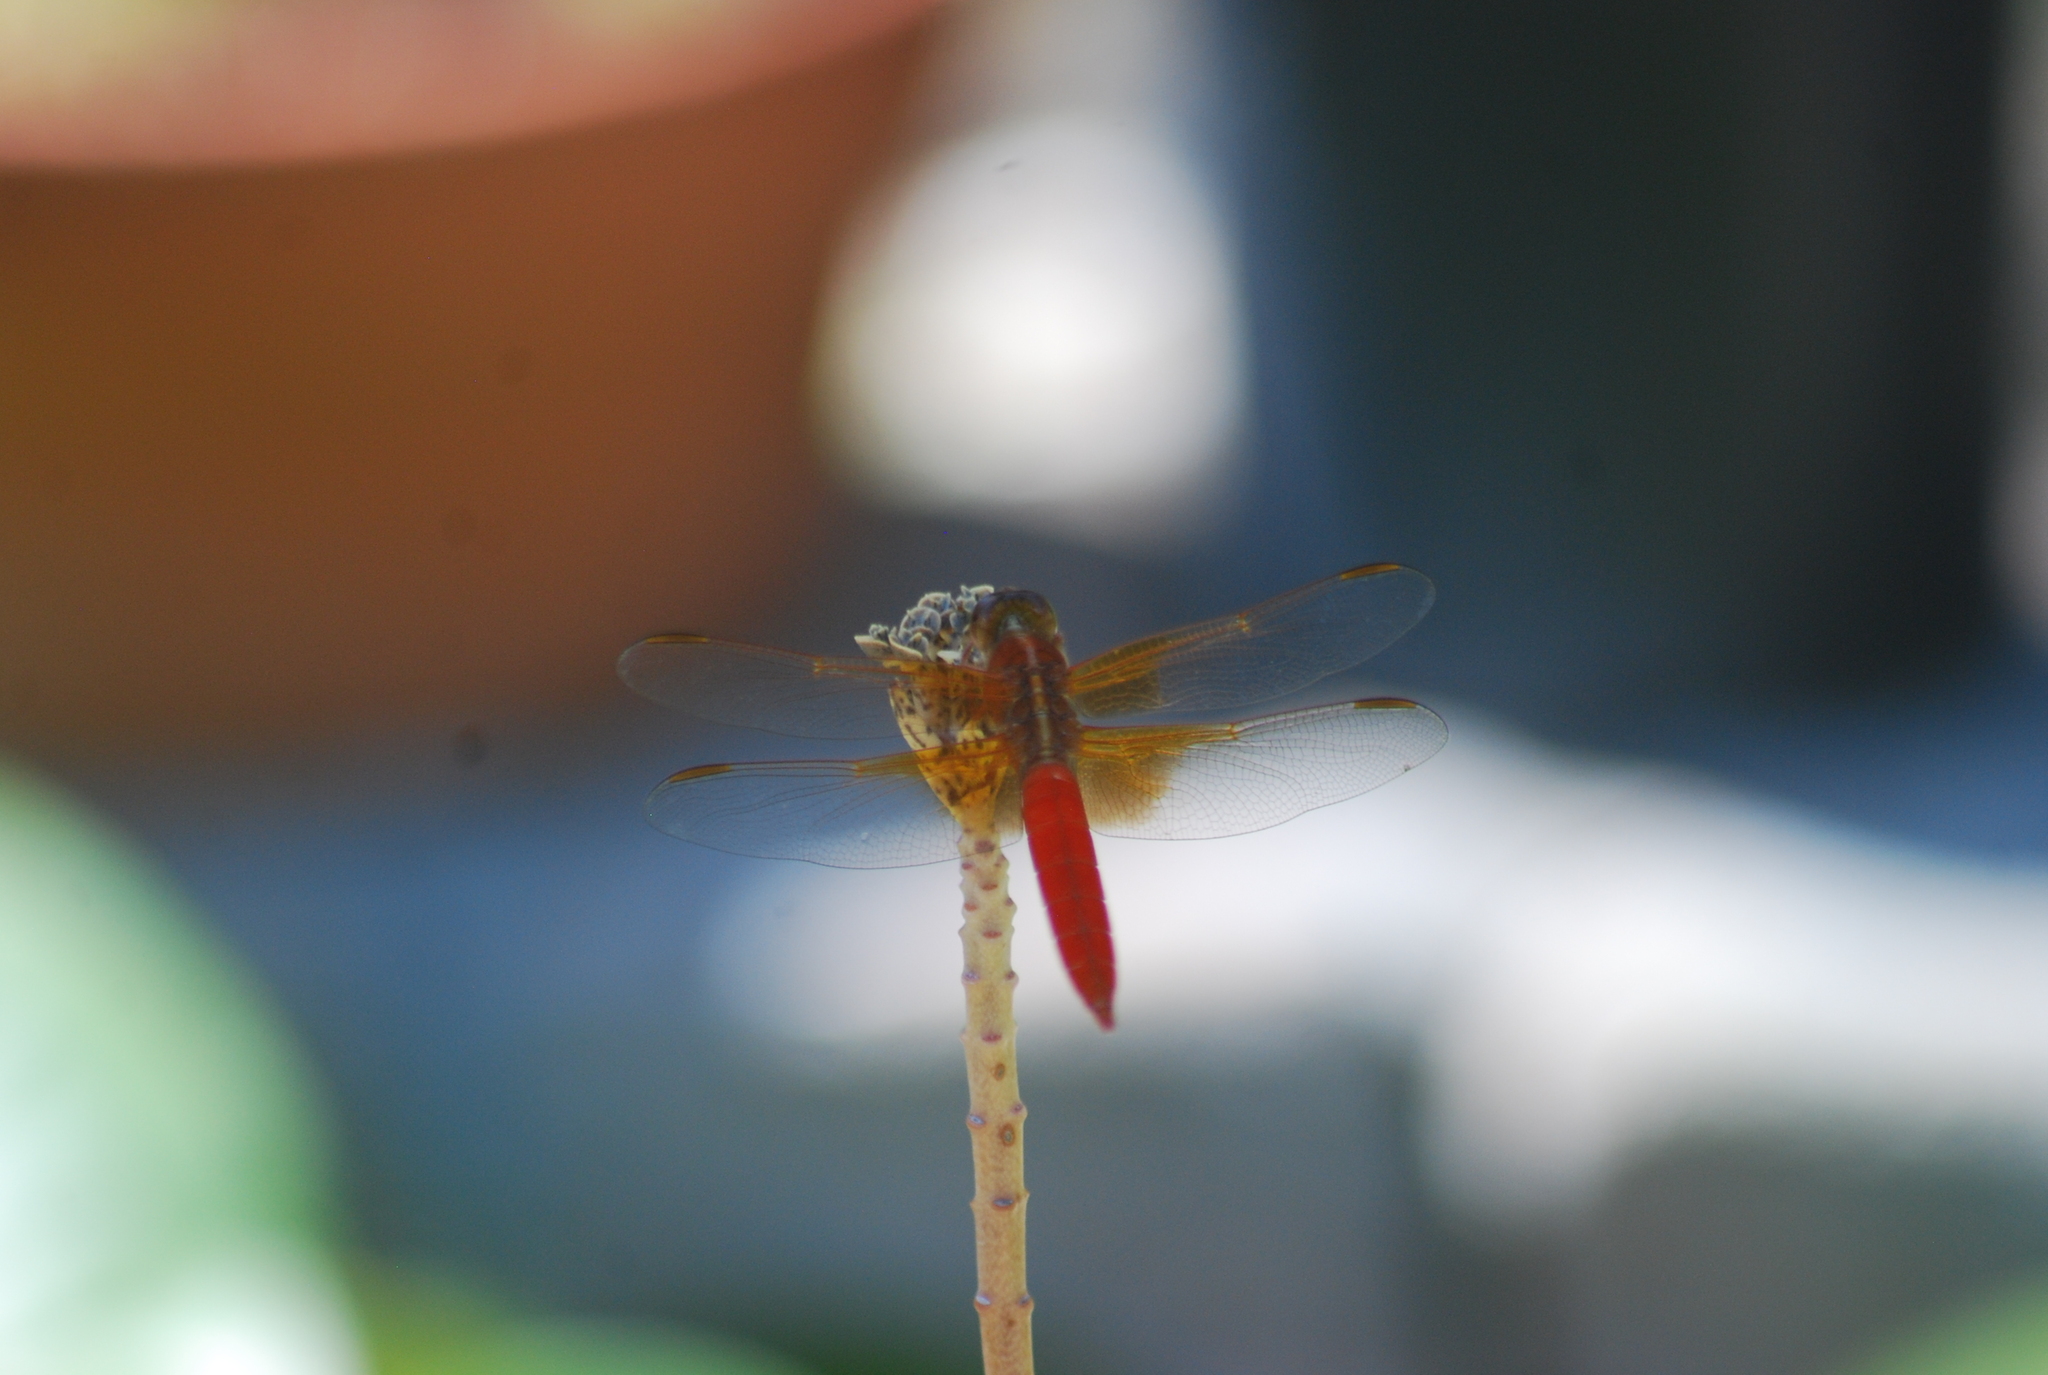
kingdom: Animalia
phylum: Arthropoda
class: Insecta
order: Odonata
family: Libellulidae
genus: Libellula
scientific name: Libellula croceipennis
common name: Neon skimmer
